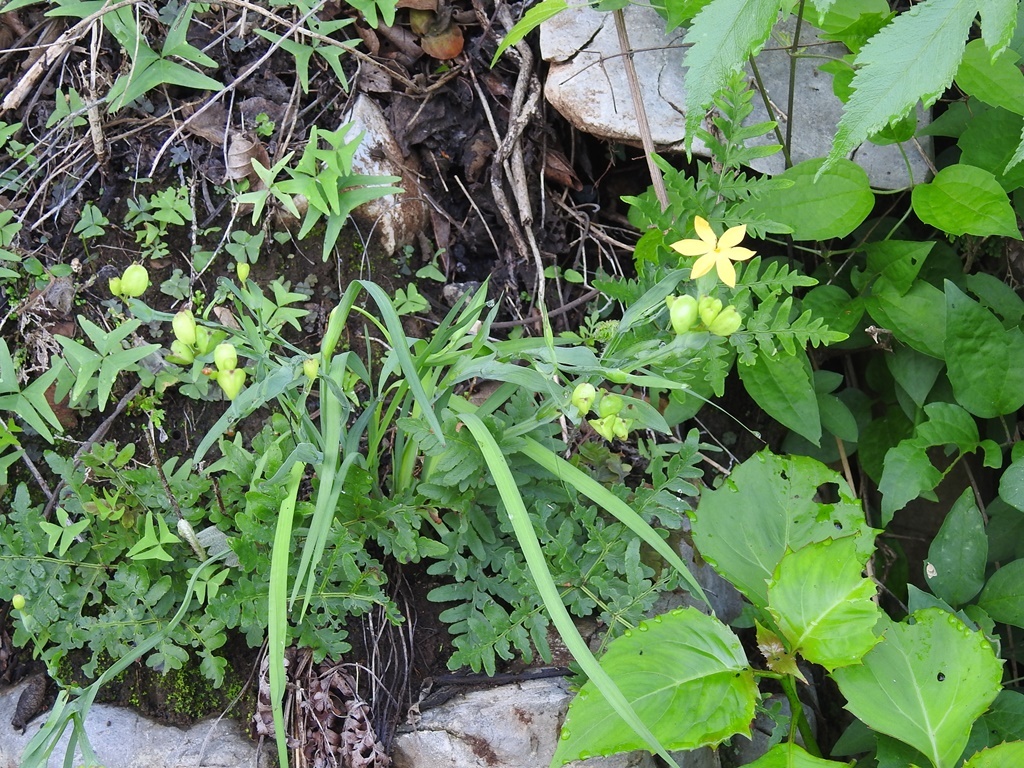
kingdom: Plantae
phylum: Tracheophyta
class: Liliopsida
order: Asparagales
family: Iridaceae
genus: Sisyrinchium
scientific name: Sisyrinchium angustissimum
